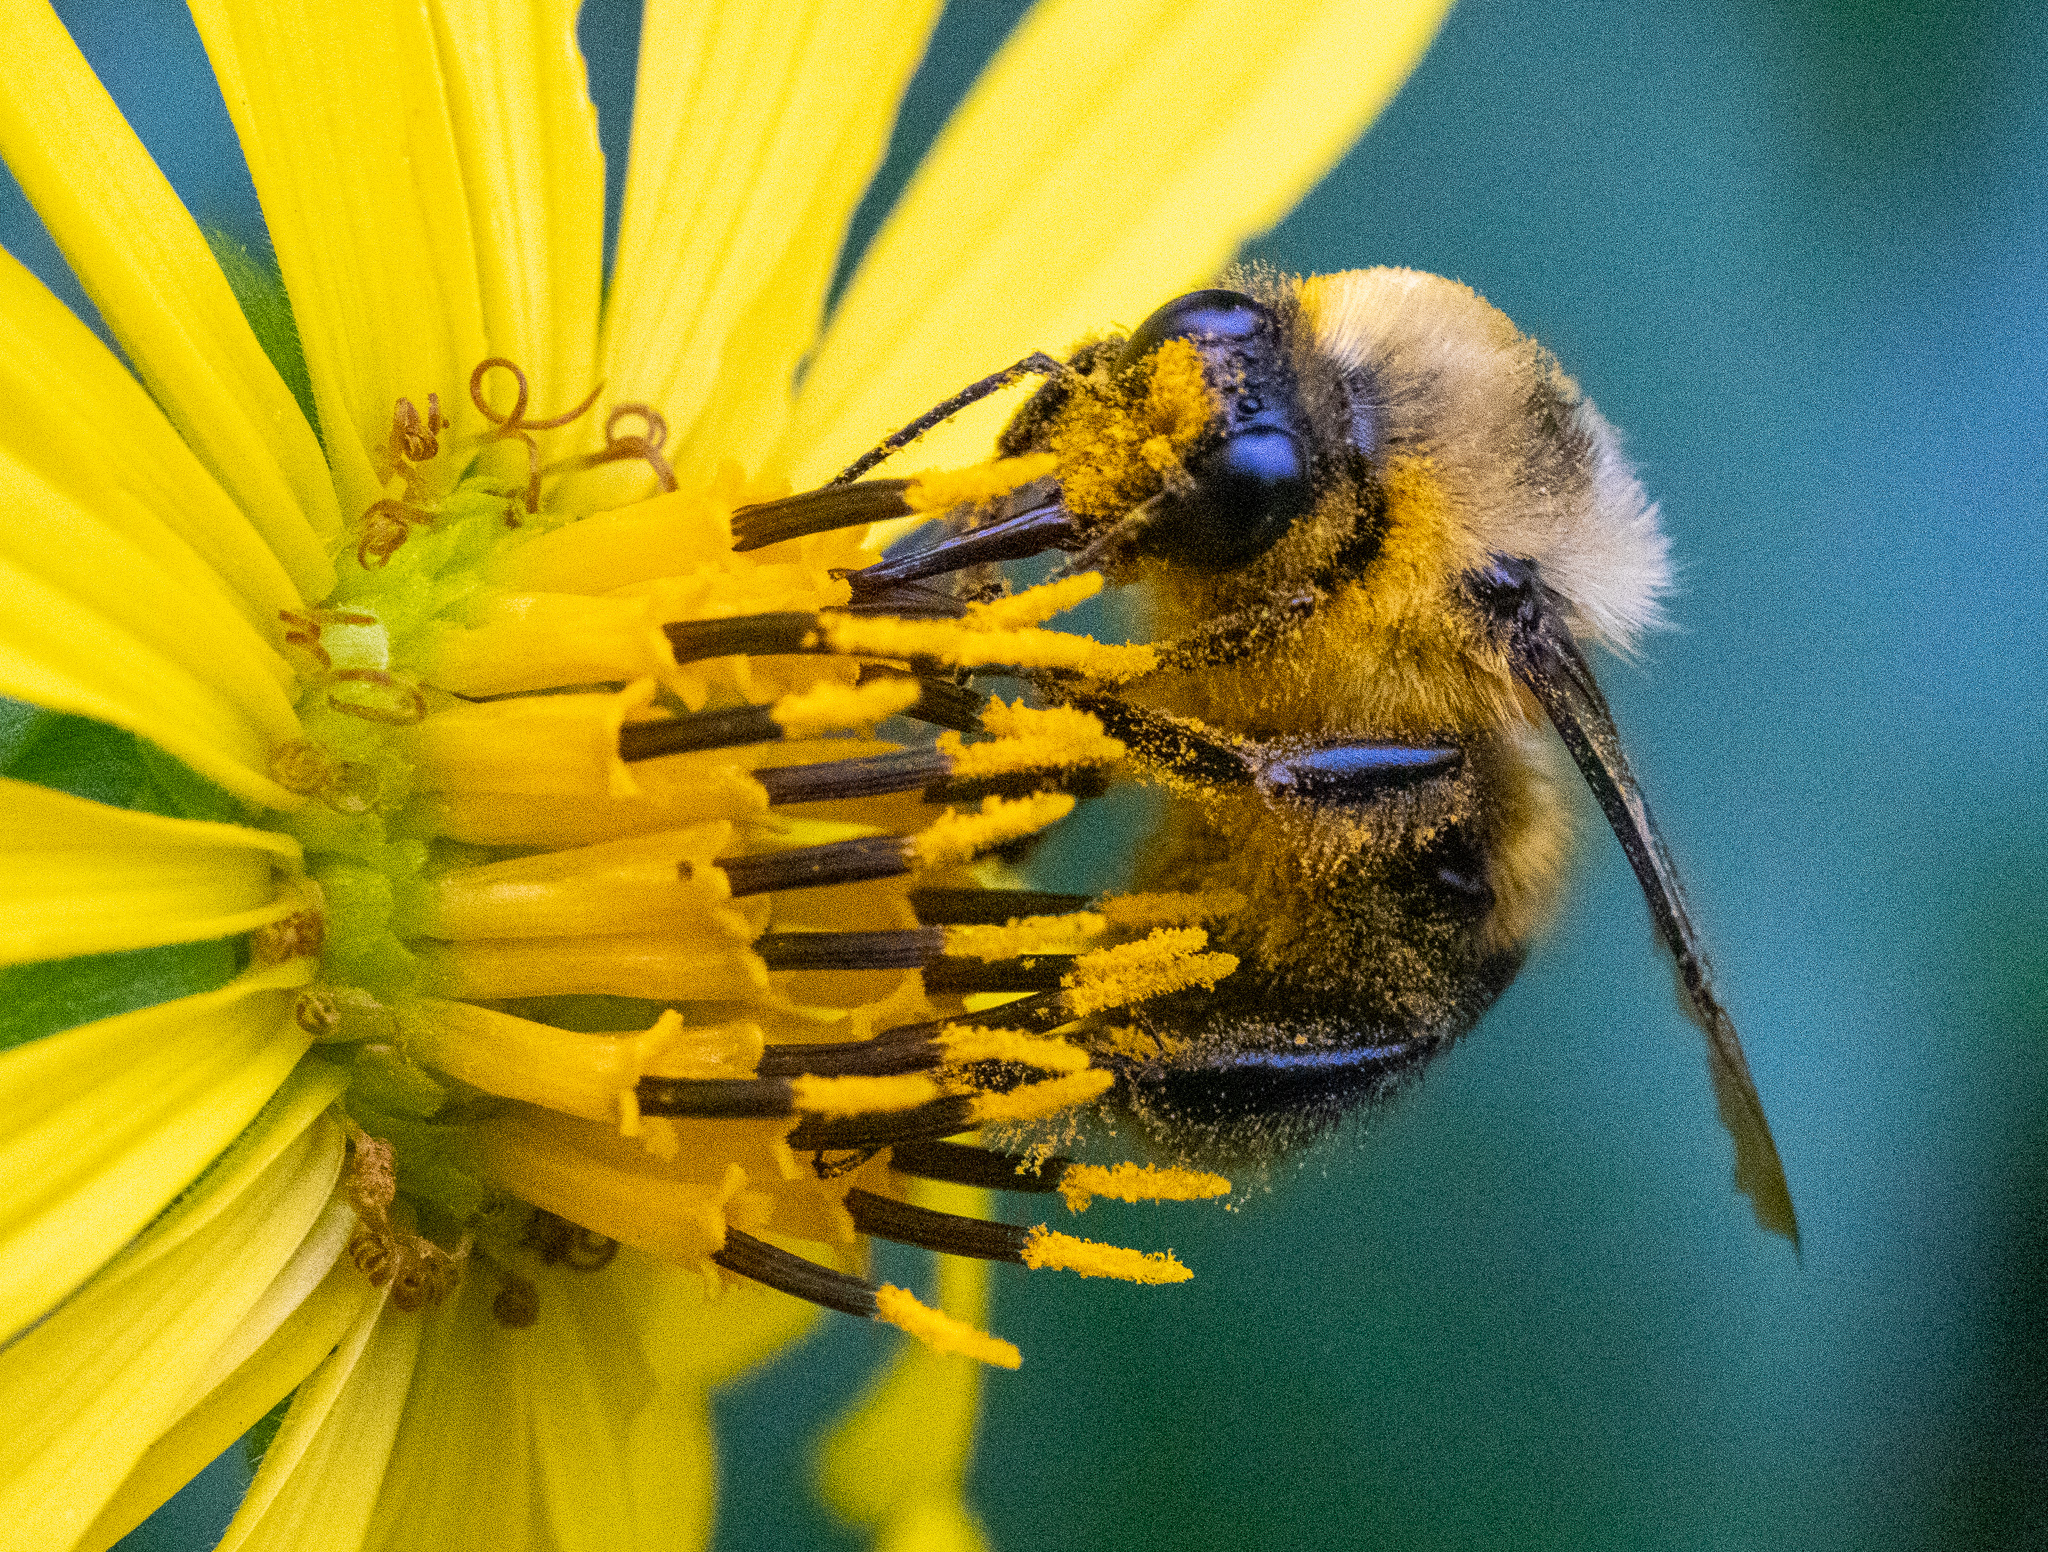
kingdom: Animalia
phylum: Arthropoda
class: Insecta
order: Hymenoptera
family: Apidae
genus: Bombus
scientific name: Bombus griseocollis
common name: Brown-belted bumble bee
